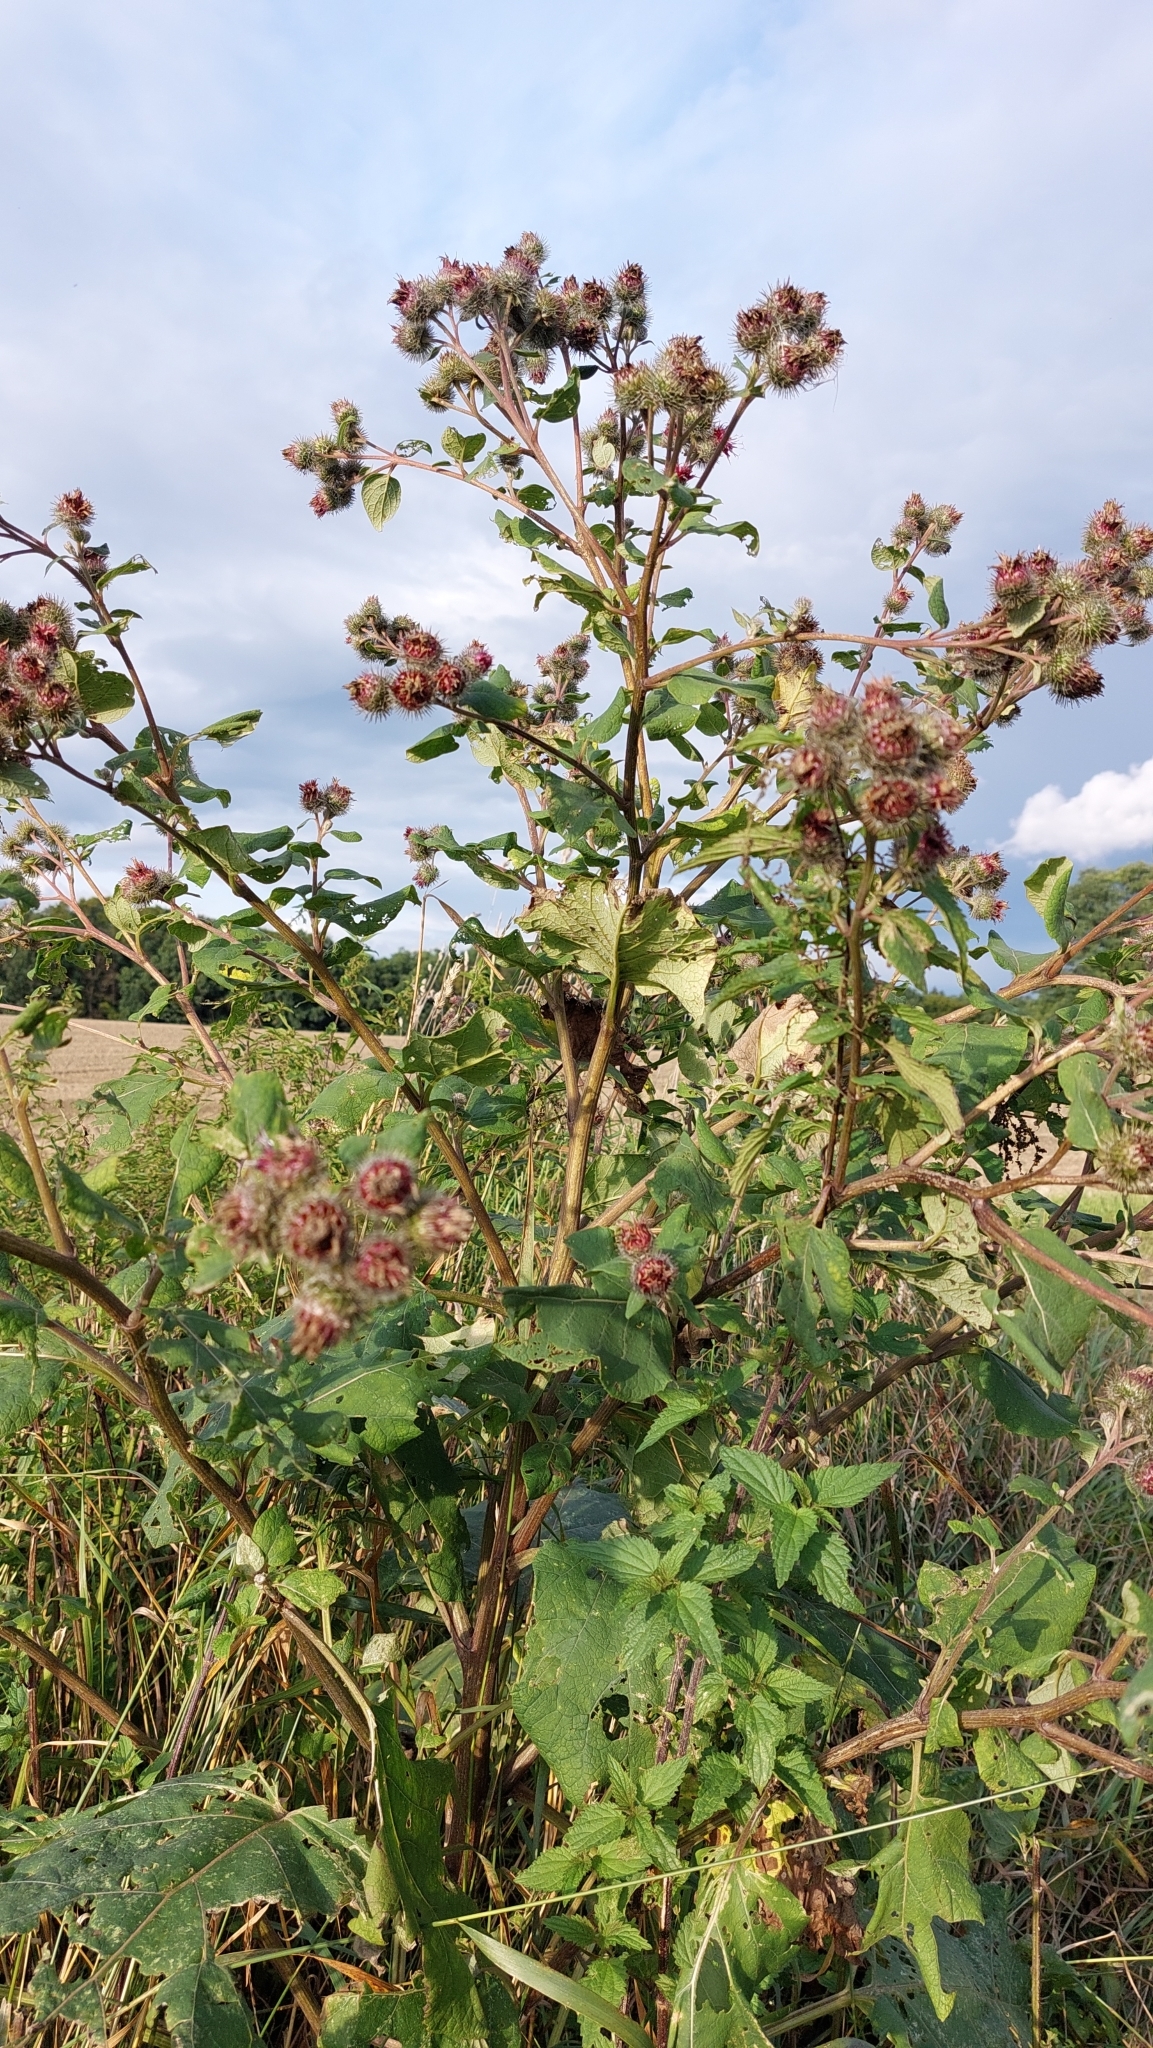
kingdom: Plantae
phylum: Tracheophyta
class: Magnoliopsida
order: Asterales
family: Asteraceae
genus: Arctium
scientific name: Arctium tomentosum
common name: Woolly burdock
